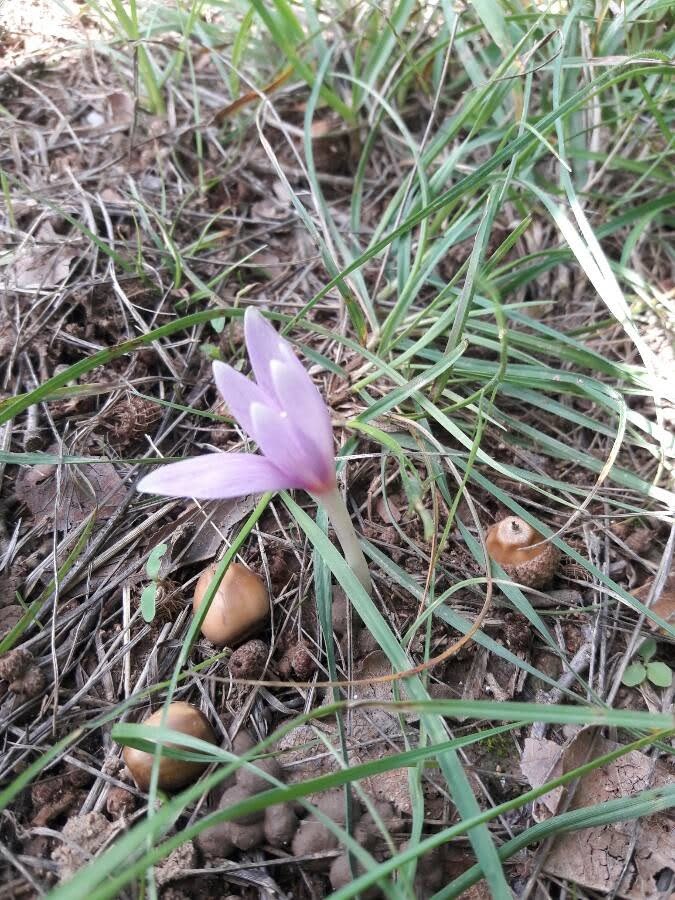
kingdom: Plantae
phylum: Tracheophyta
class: Liliopsida
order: Liliales
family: Colchicaceae
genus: Colchicum
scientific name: Colchicum autumnale
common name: Autumn crocus
